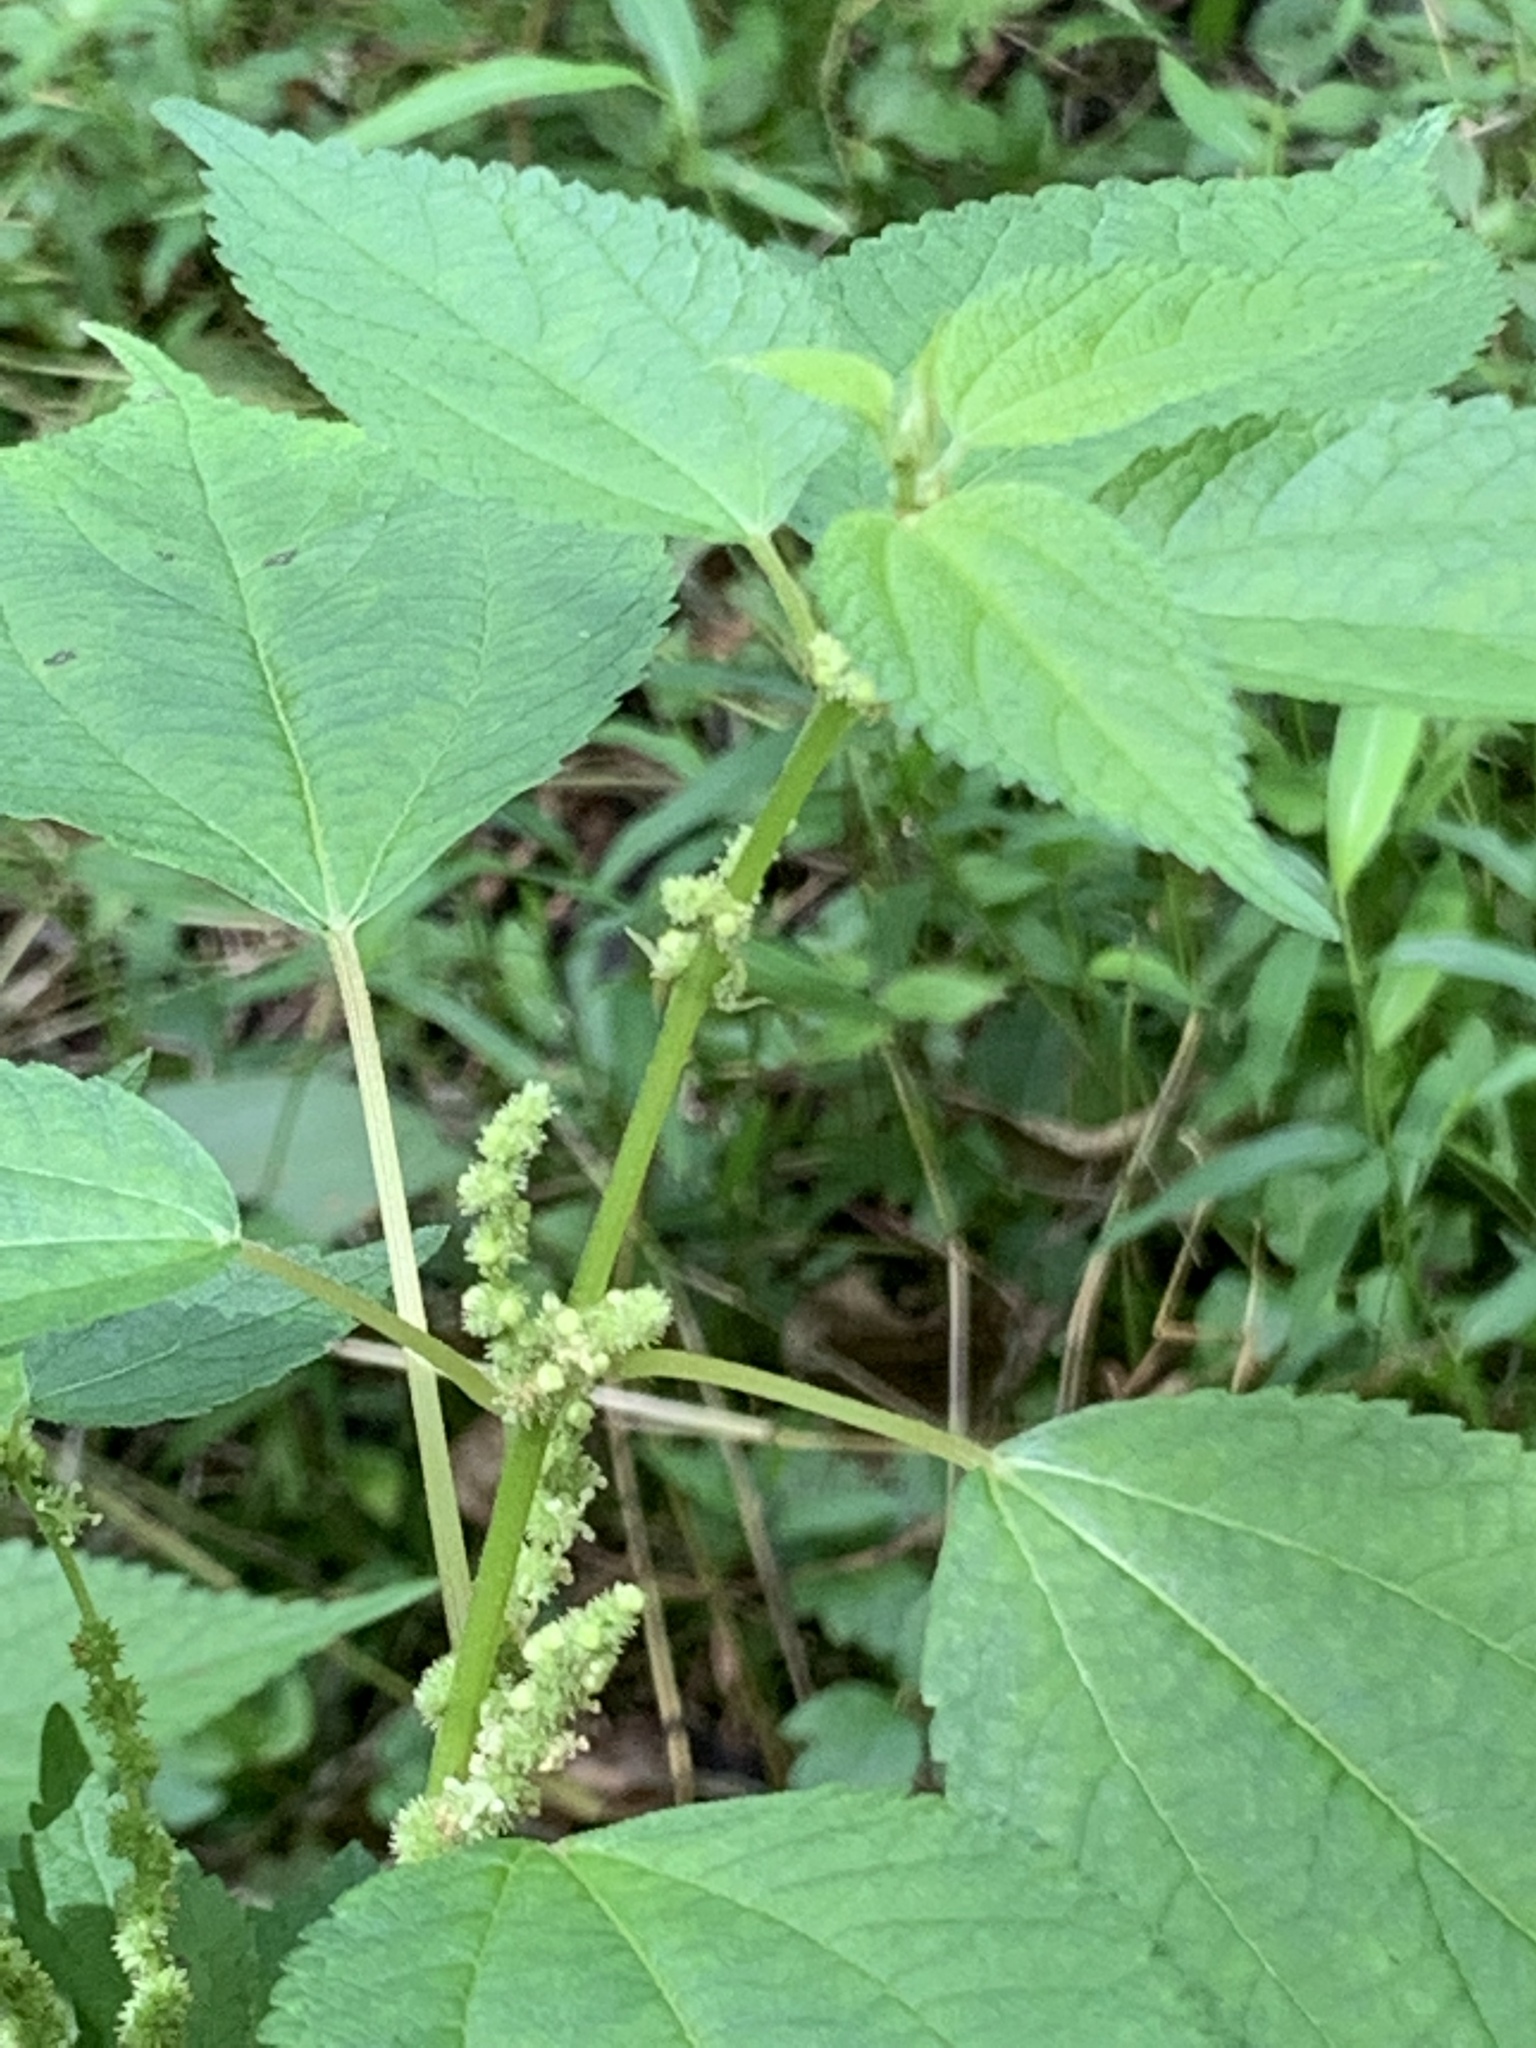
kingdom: Plantae
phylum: Tracheophyta
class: Magnoliopsida
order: Rosales
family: Urticaceae
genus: Boehmeria
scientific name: Boehmeria cylindrica
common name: Bog-hemp
